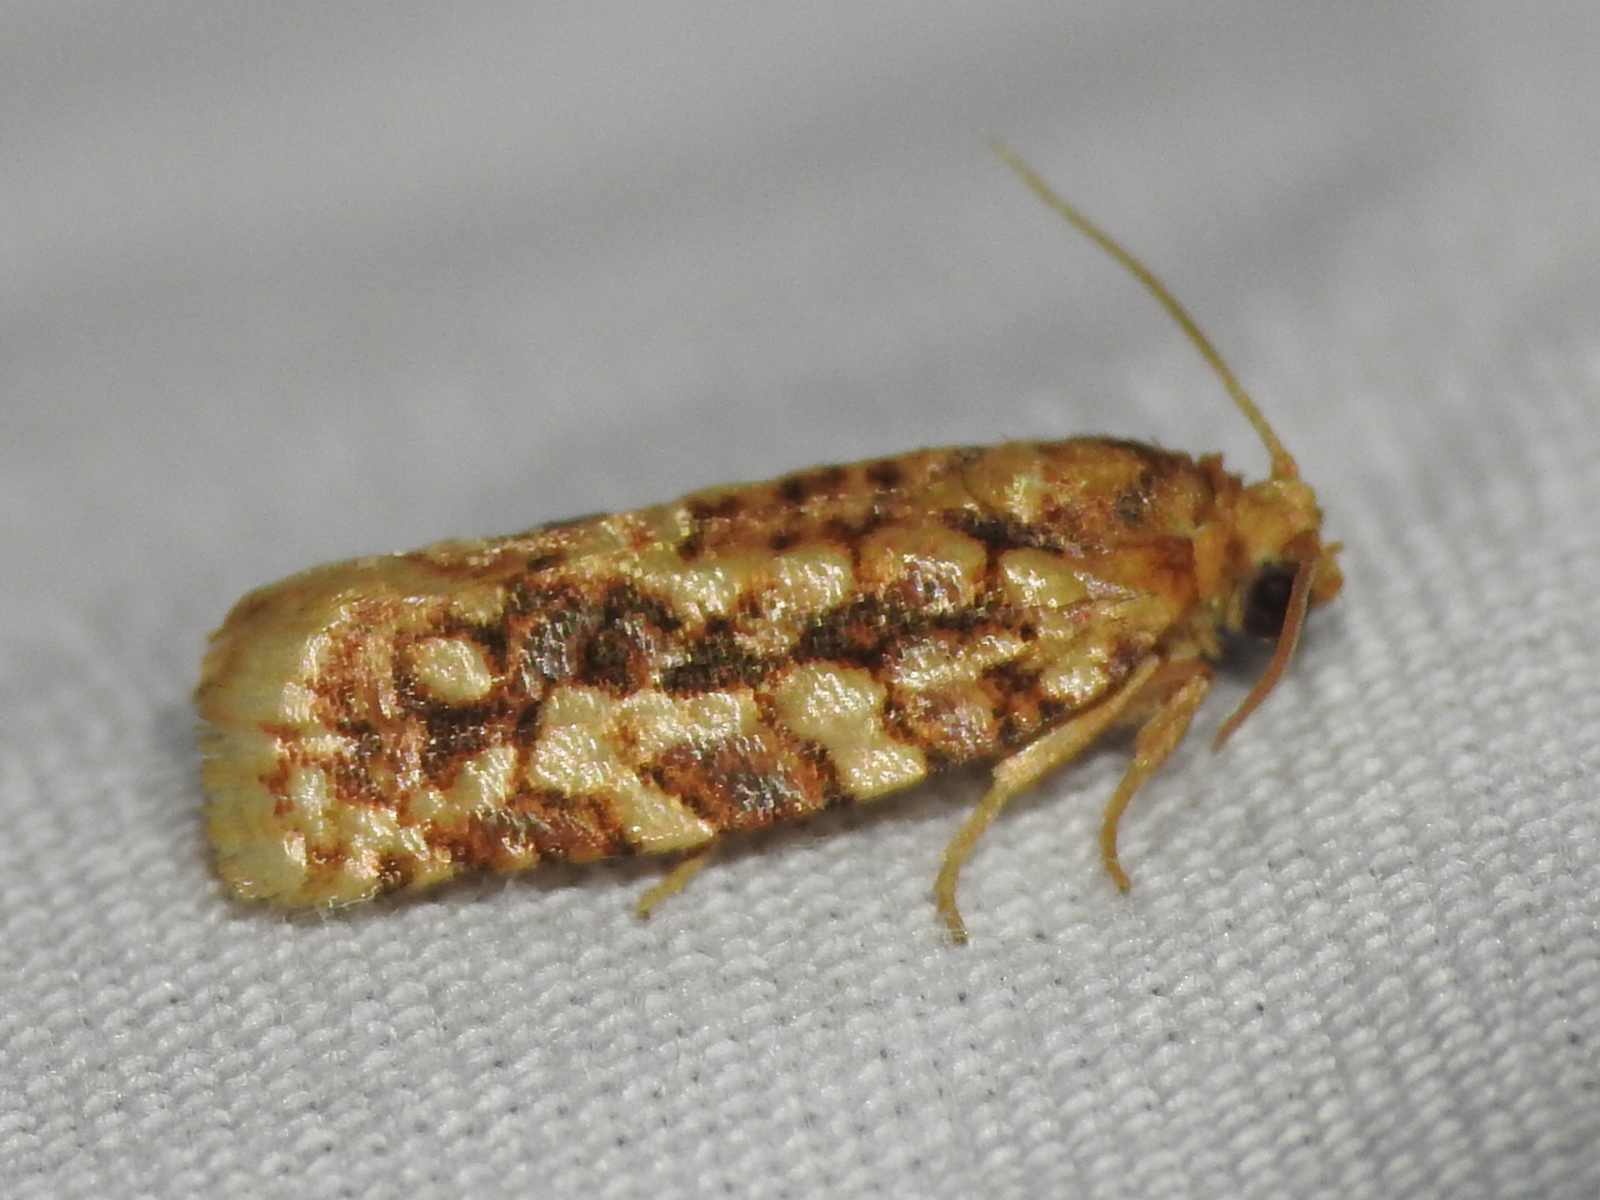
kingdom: Animalia
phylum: Arthropoda
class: Insecta
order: Lepidoptera
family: Tortricidae
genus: Choristoneura
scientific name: Choristoneura houstonana
